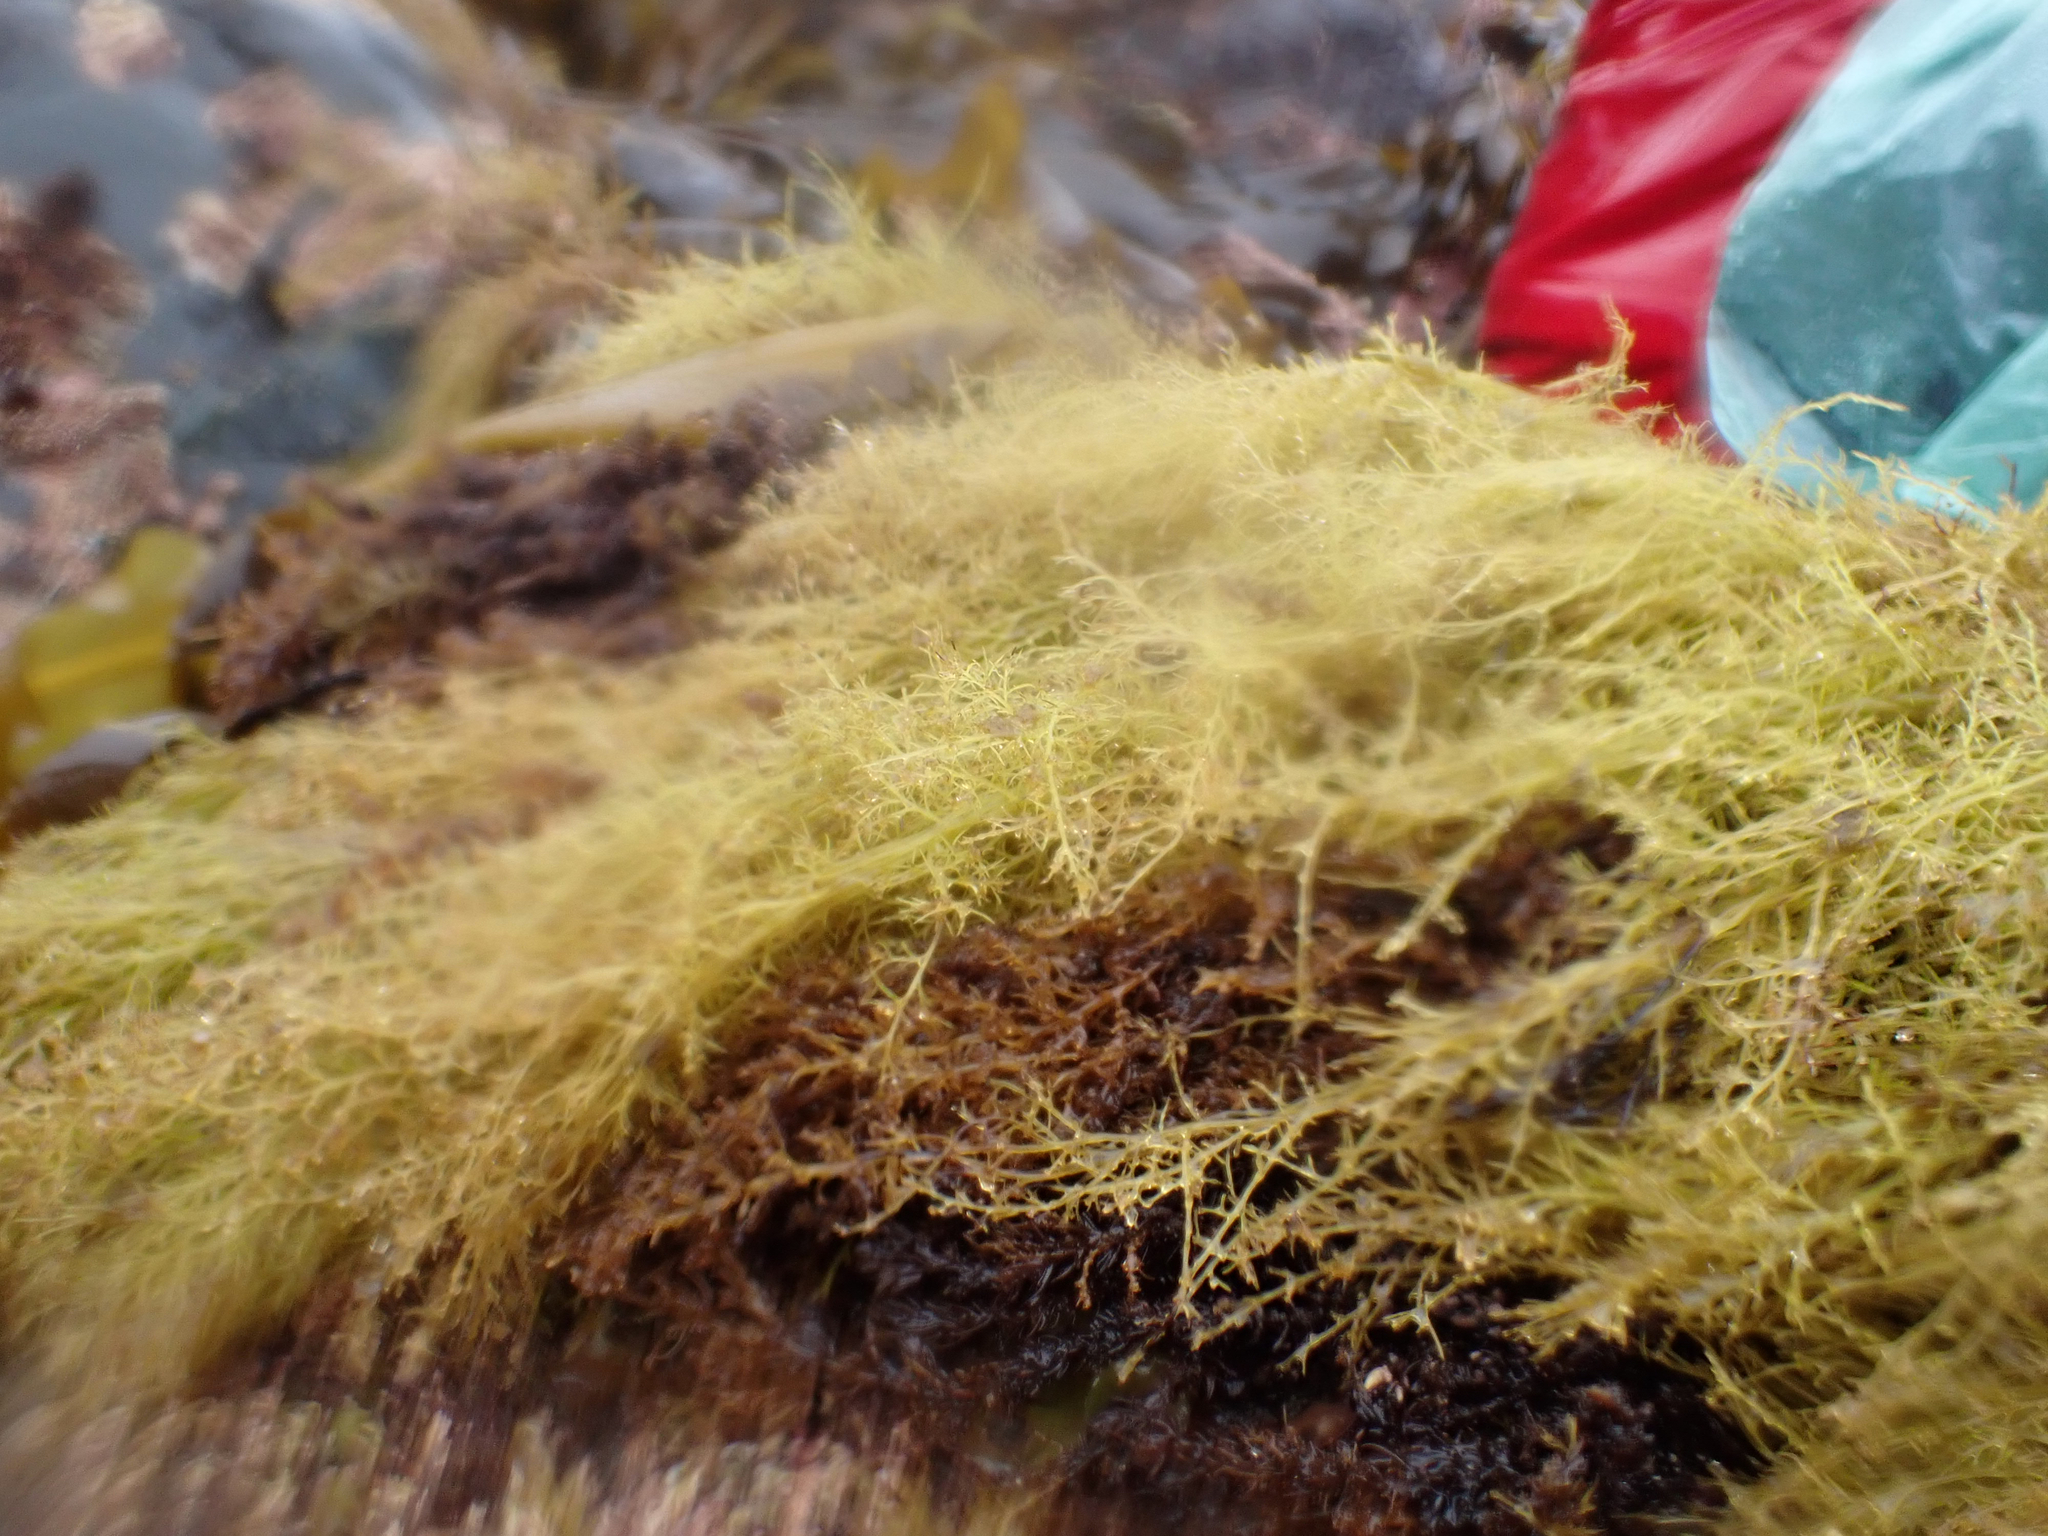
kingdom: Plantae
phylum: Rhodophyta
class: Florideophyceae
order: Ceramiales
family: Rhodomelaceae
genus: Odonthalia
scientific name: Odonthalia floccosa
